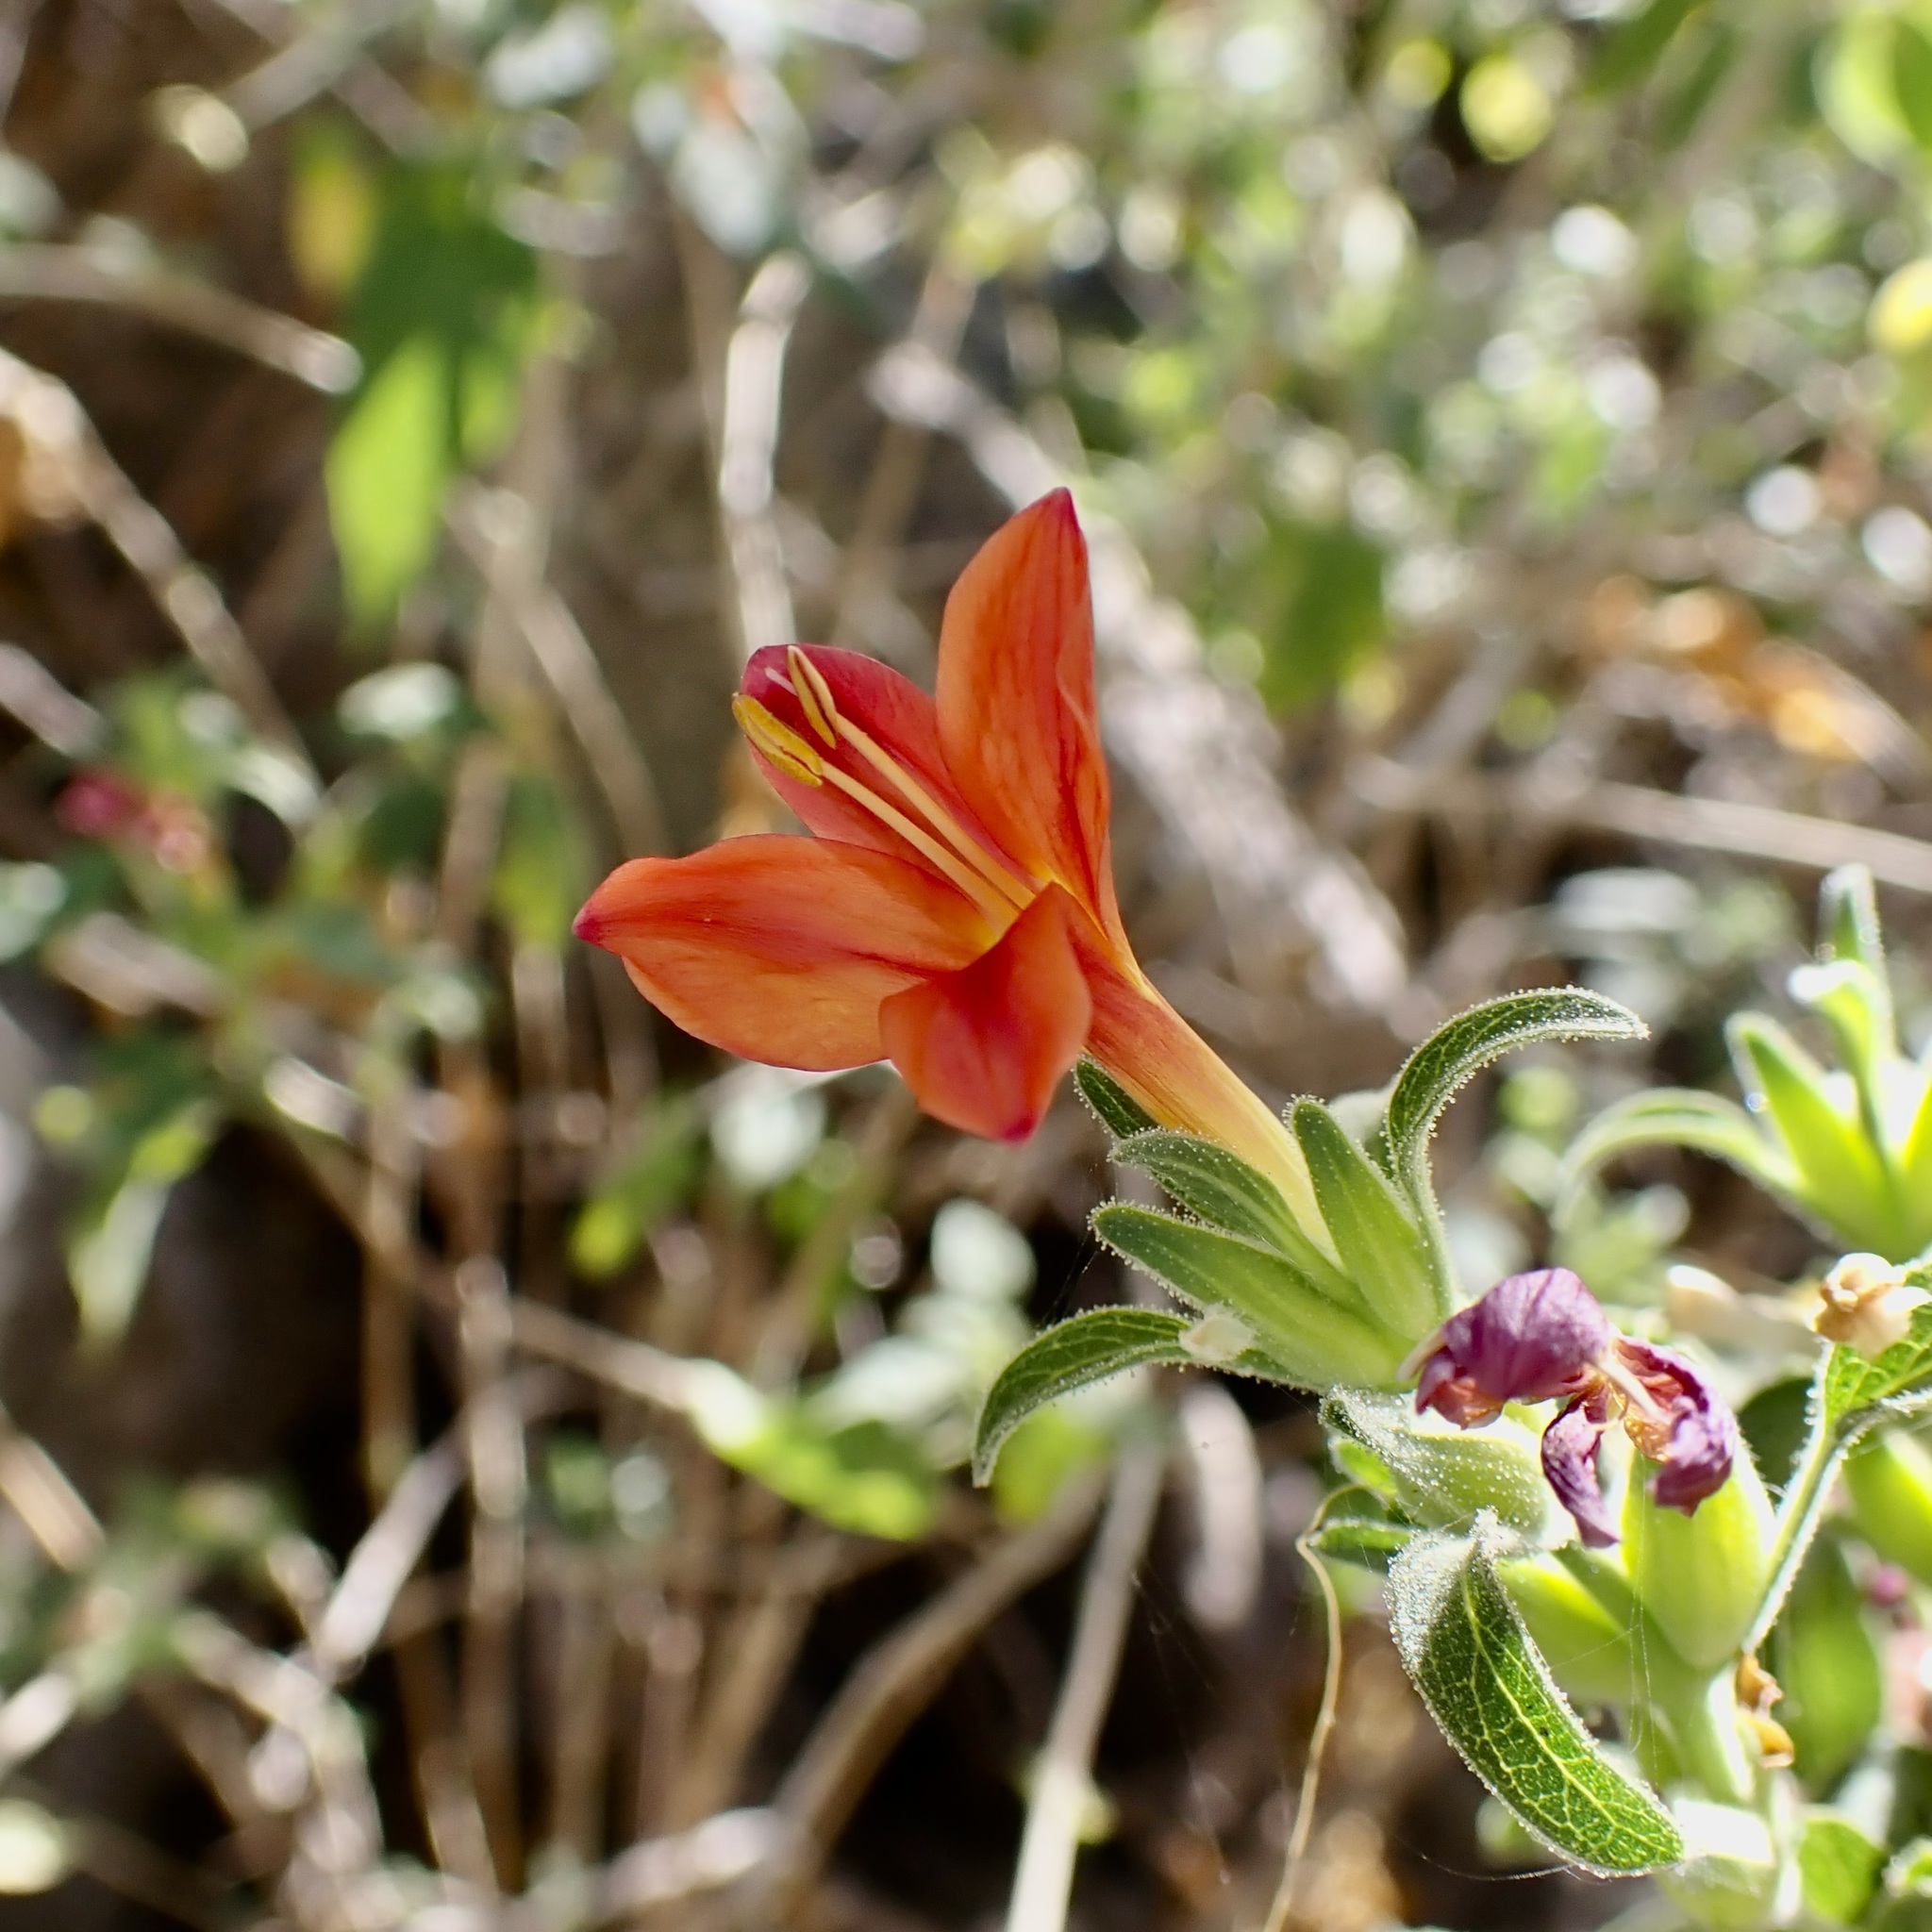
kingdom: Plantae
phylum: Tracheophyta
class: Magnoliopsida
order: Lamiales
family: Acanthaceae
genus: Tetramerium
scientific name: Tetramerium abditum
